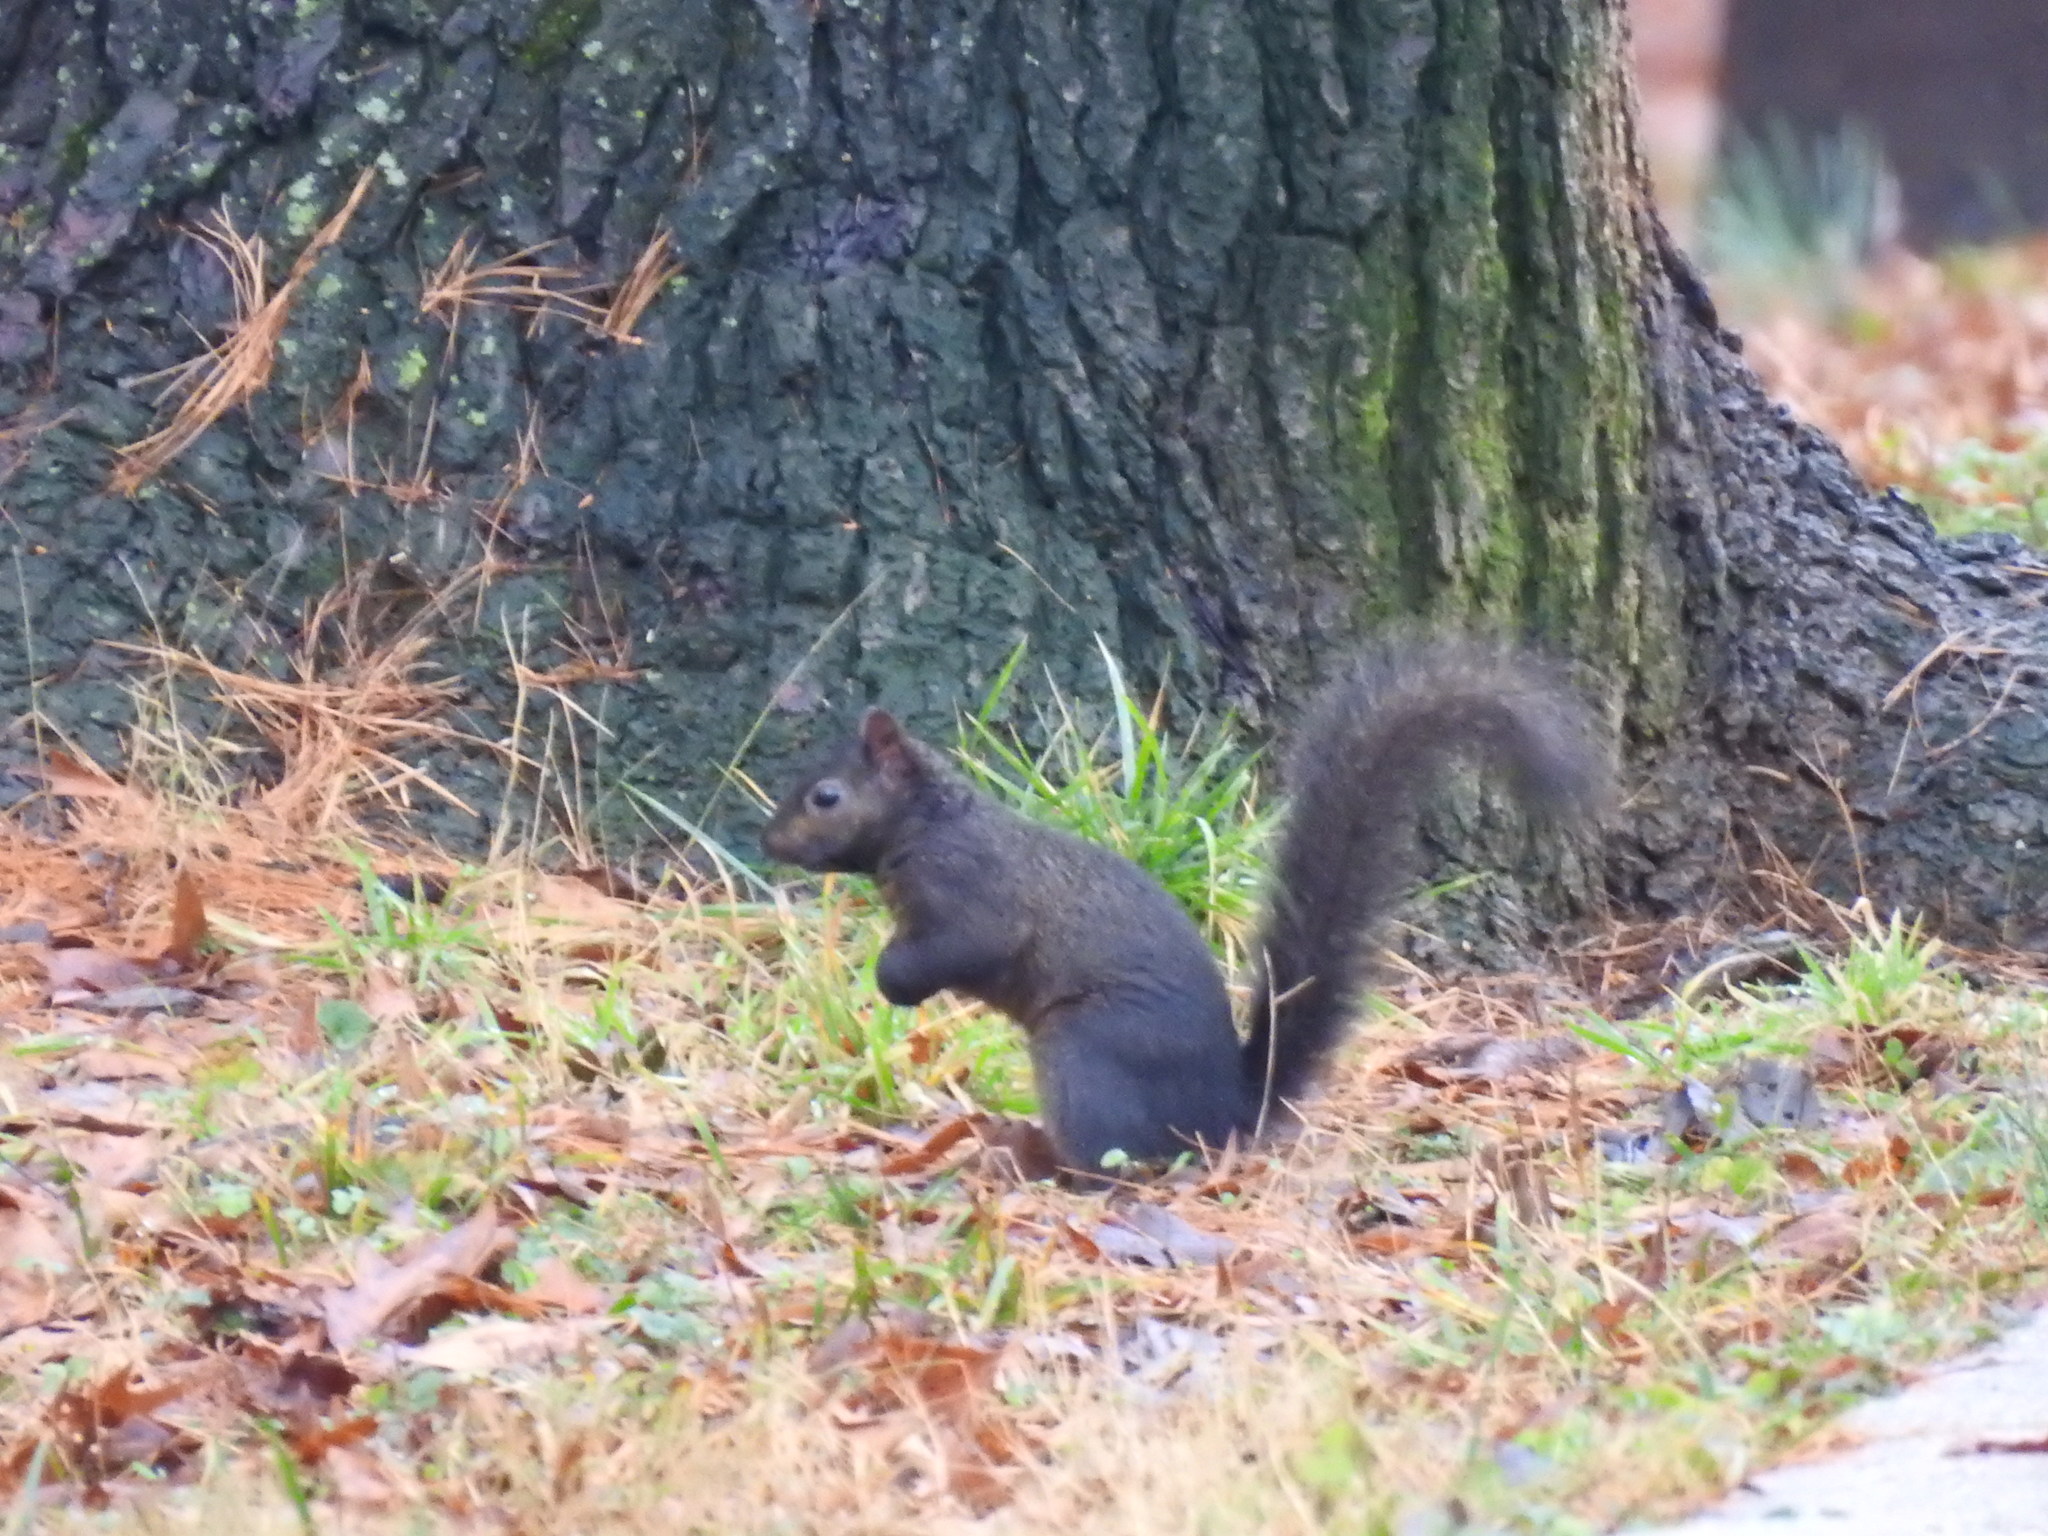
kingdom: Animalia
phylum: Chordata
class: Mammalia
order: Rodentia
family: Sciuridae
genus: Sciurus
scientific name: Sciurus carolinensis
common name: Eastern gray squirrel
